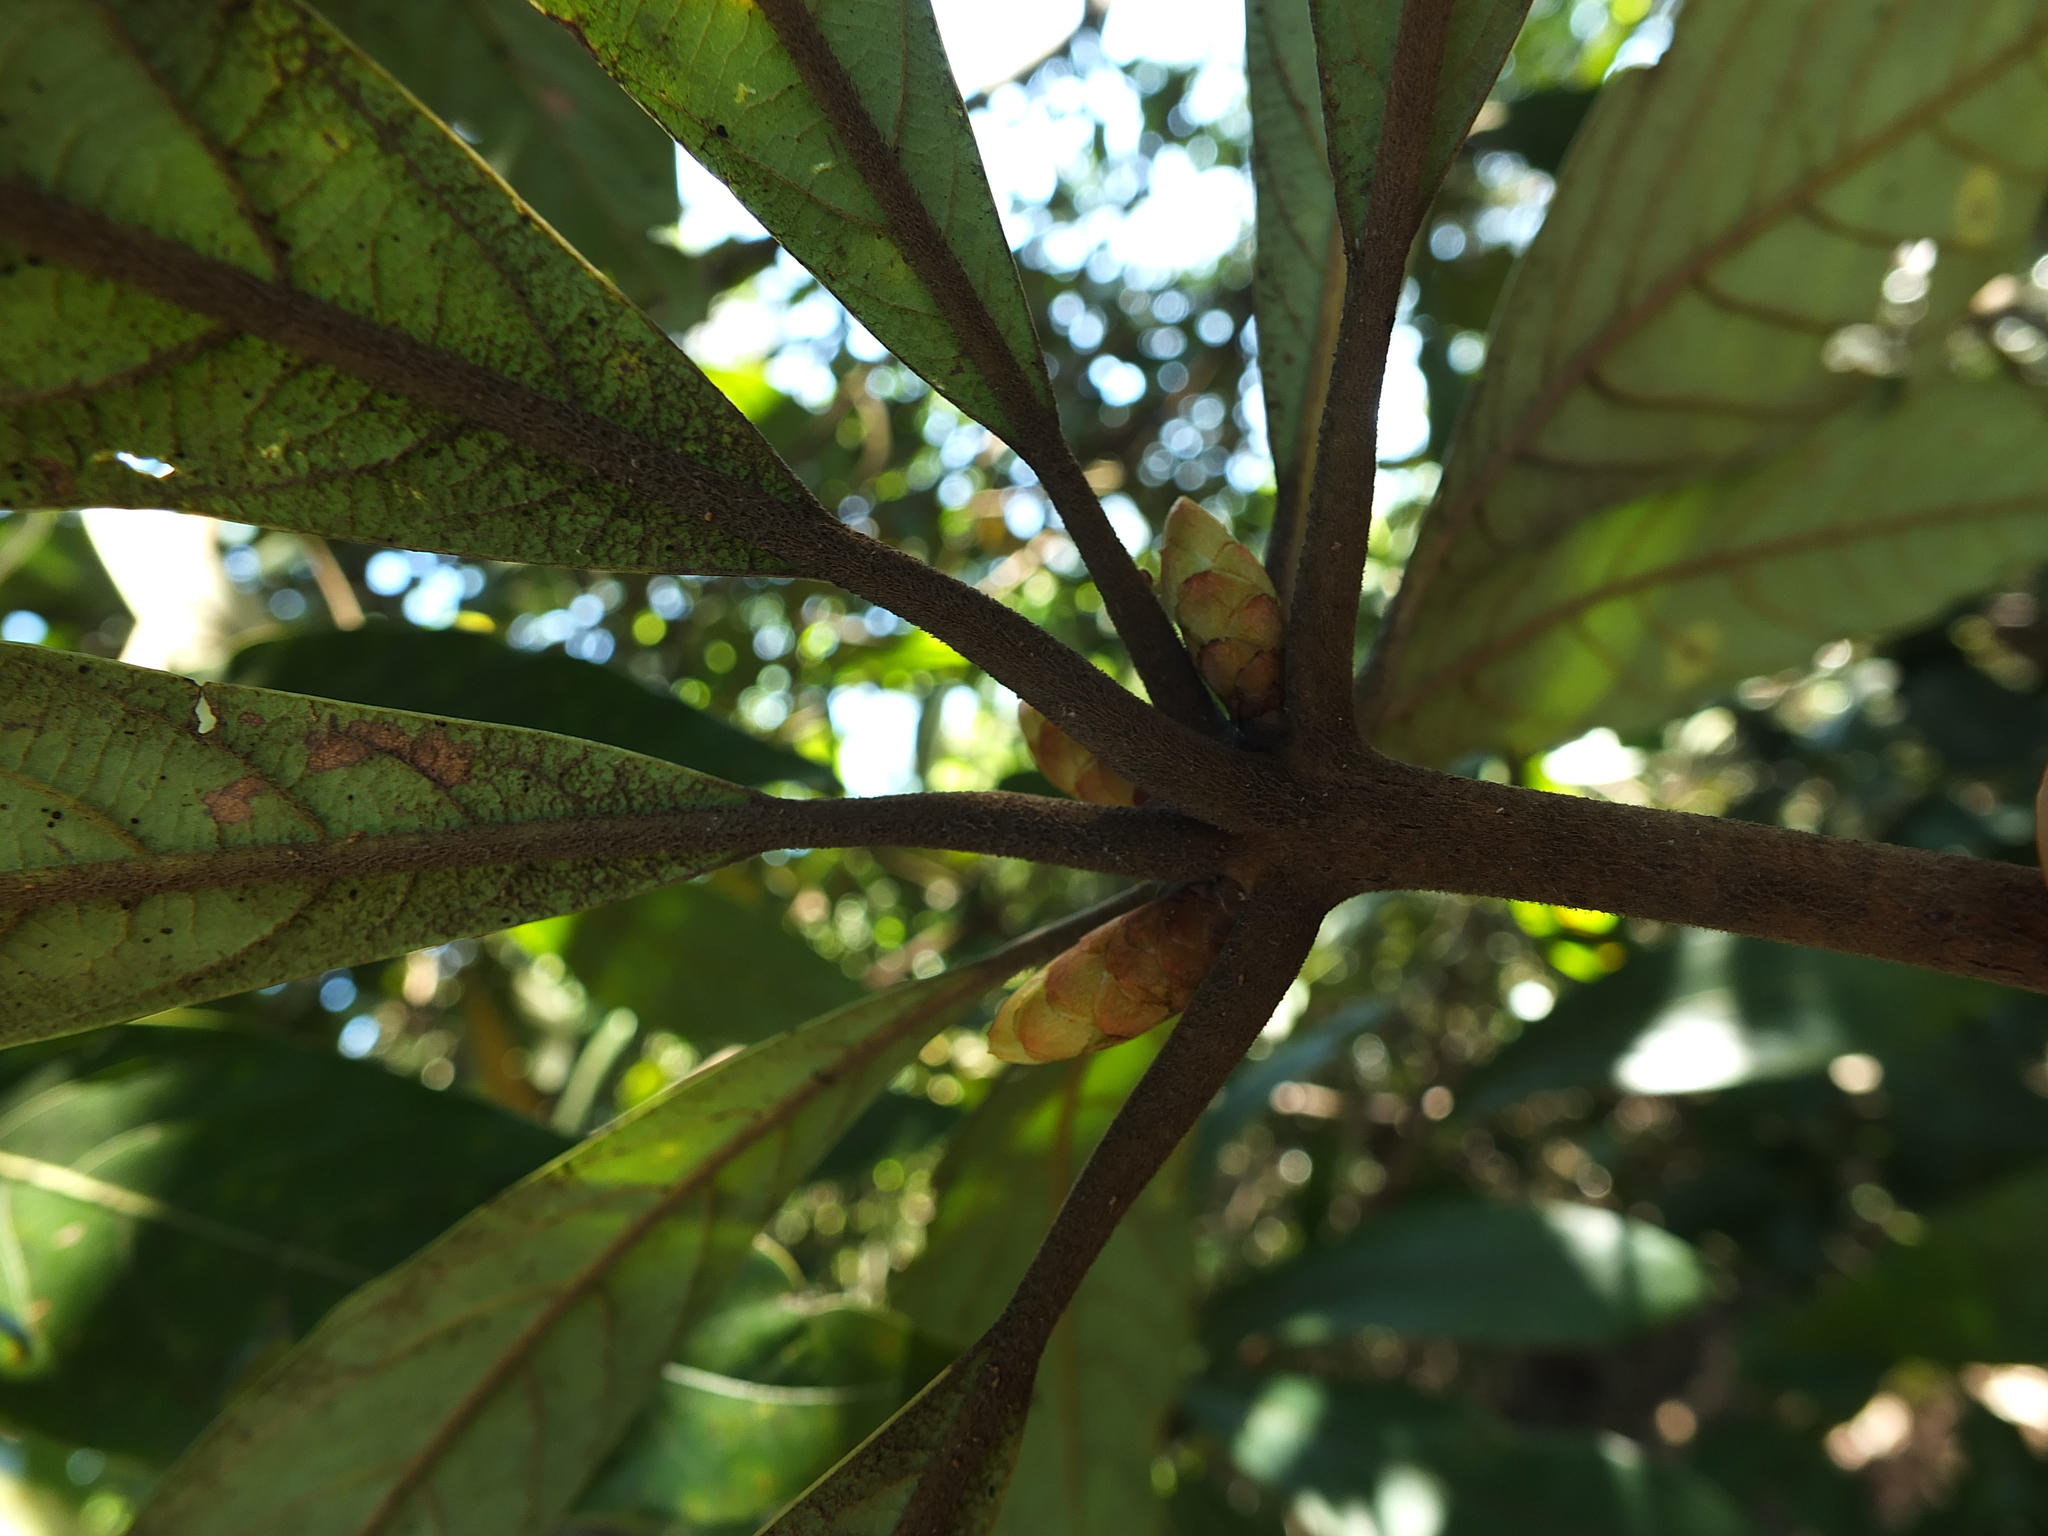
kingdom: Plantae
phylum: Tracheophyta
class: Magnoliopsida
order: Laurales
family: Lauraceae
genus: Actinodaphne
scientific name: Actinodaphne bourdillonii
